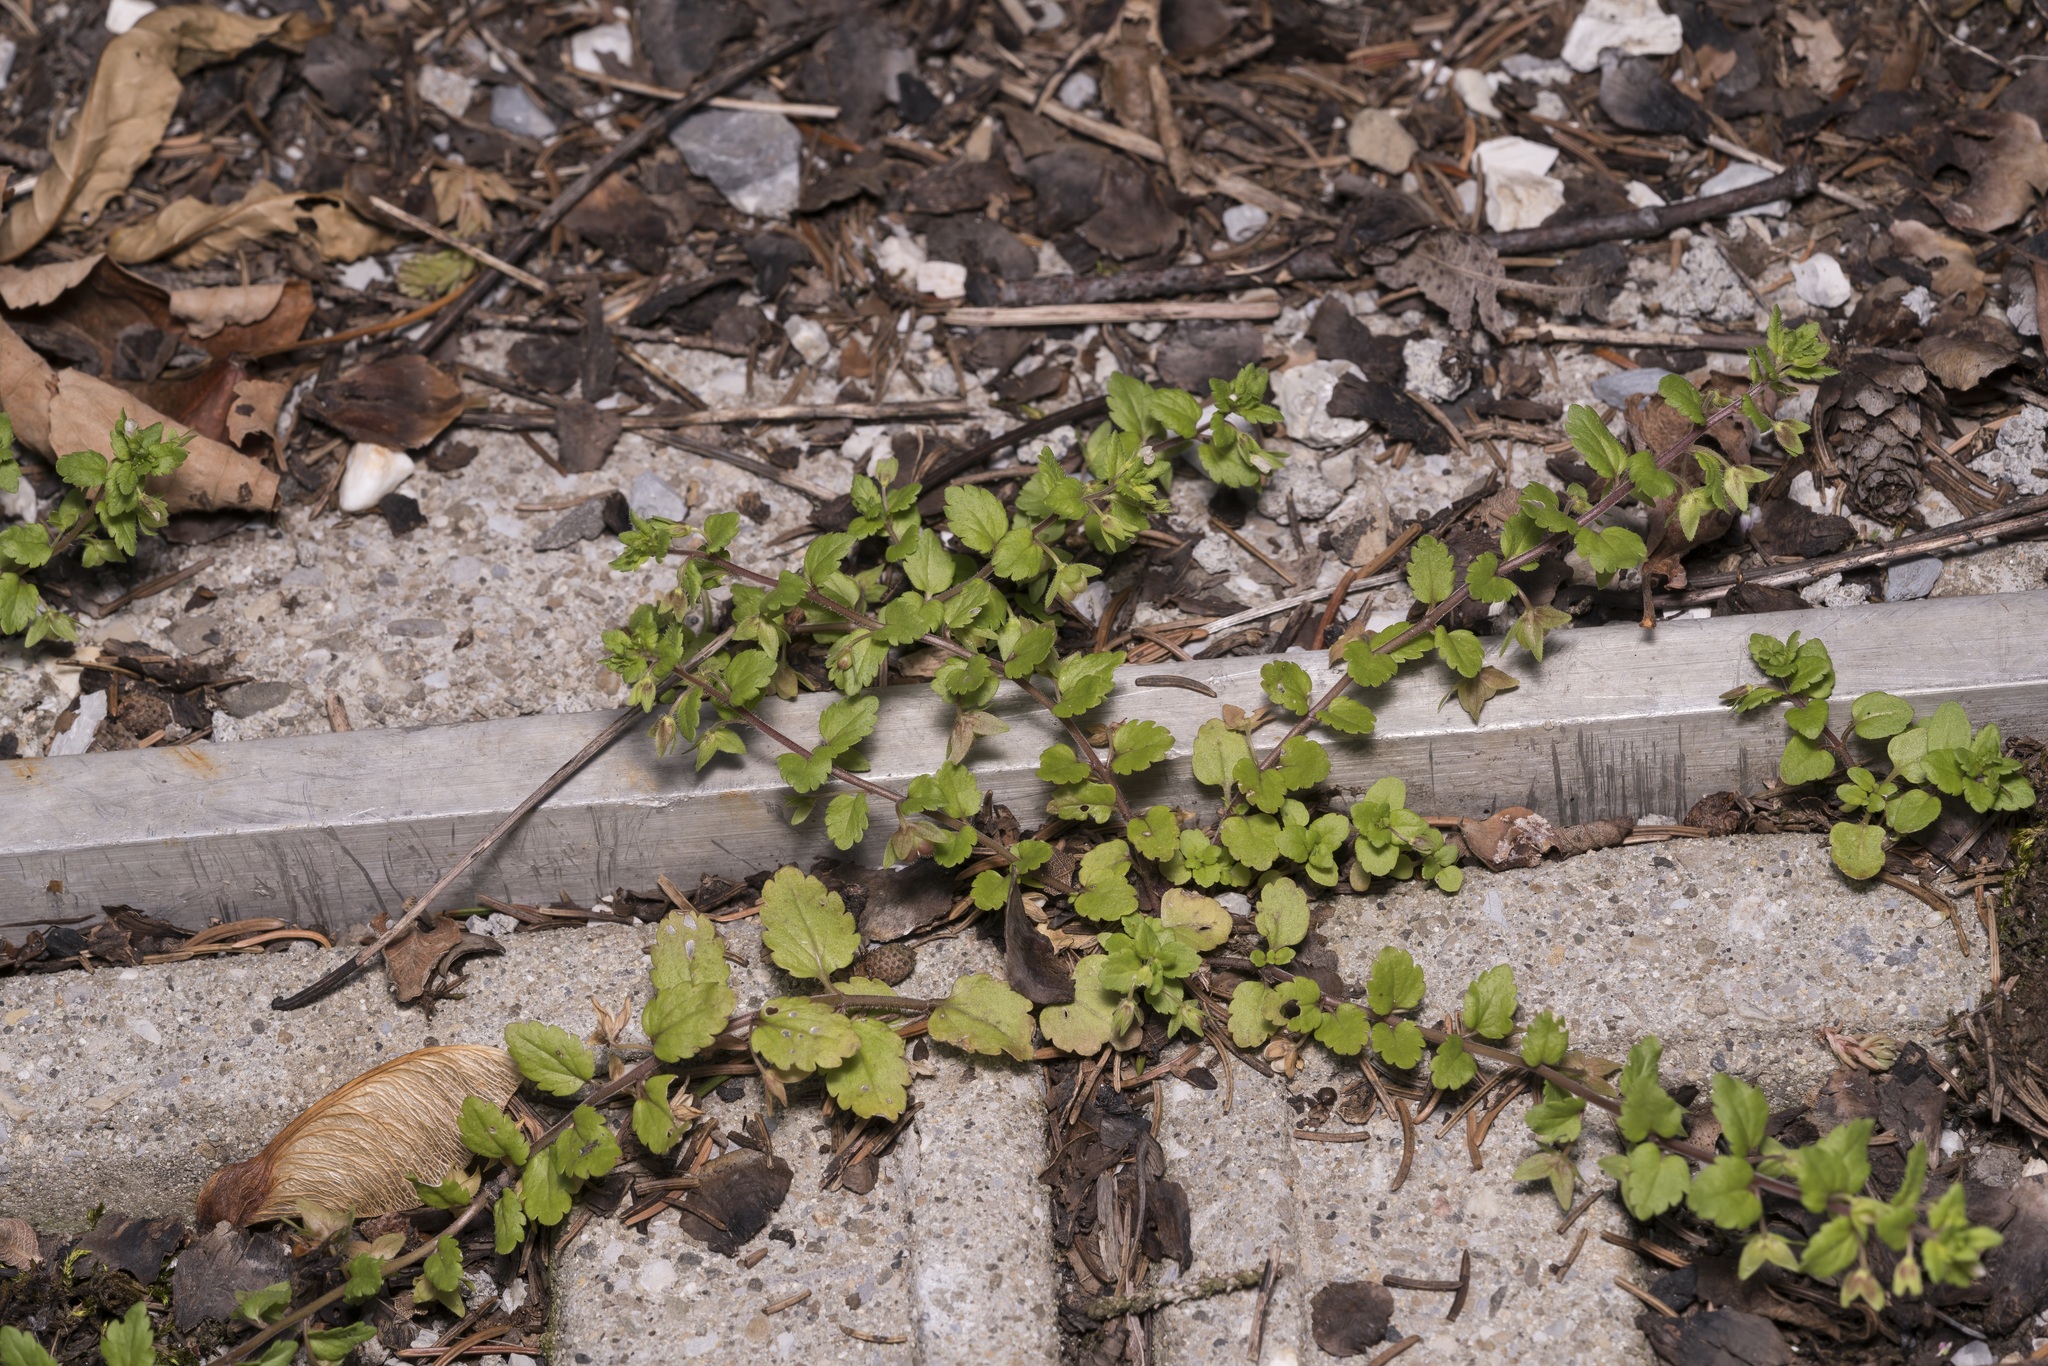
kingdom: Plantae
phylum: Tracheophyta
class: Magnoliopsida
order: Lamiales
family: Plantaginaceae
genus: Veronica
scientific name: Veronica agrestis
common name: Green field-speedwell
